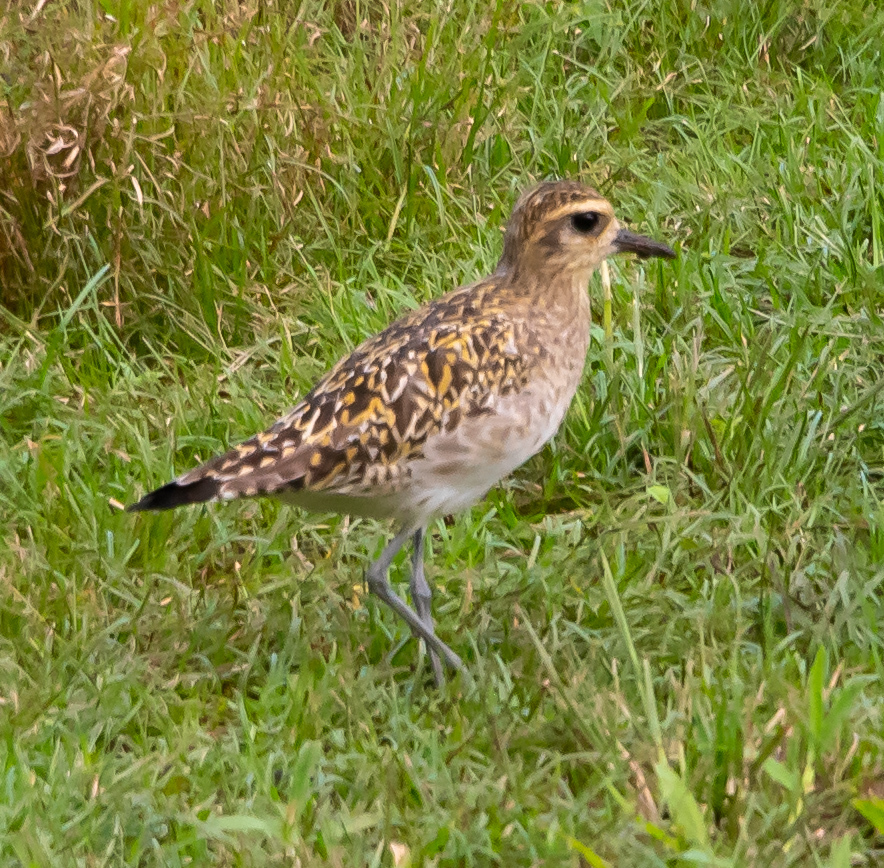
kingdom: Animalia
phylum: Chordata
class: Aves
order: Charadriiformes
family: Charadriidae
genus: Pluvialis
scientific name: Pluvialis fulva
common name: Pacific golden plover
